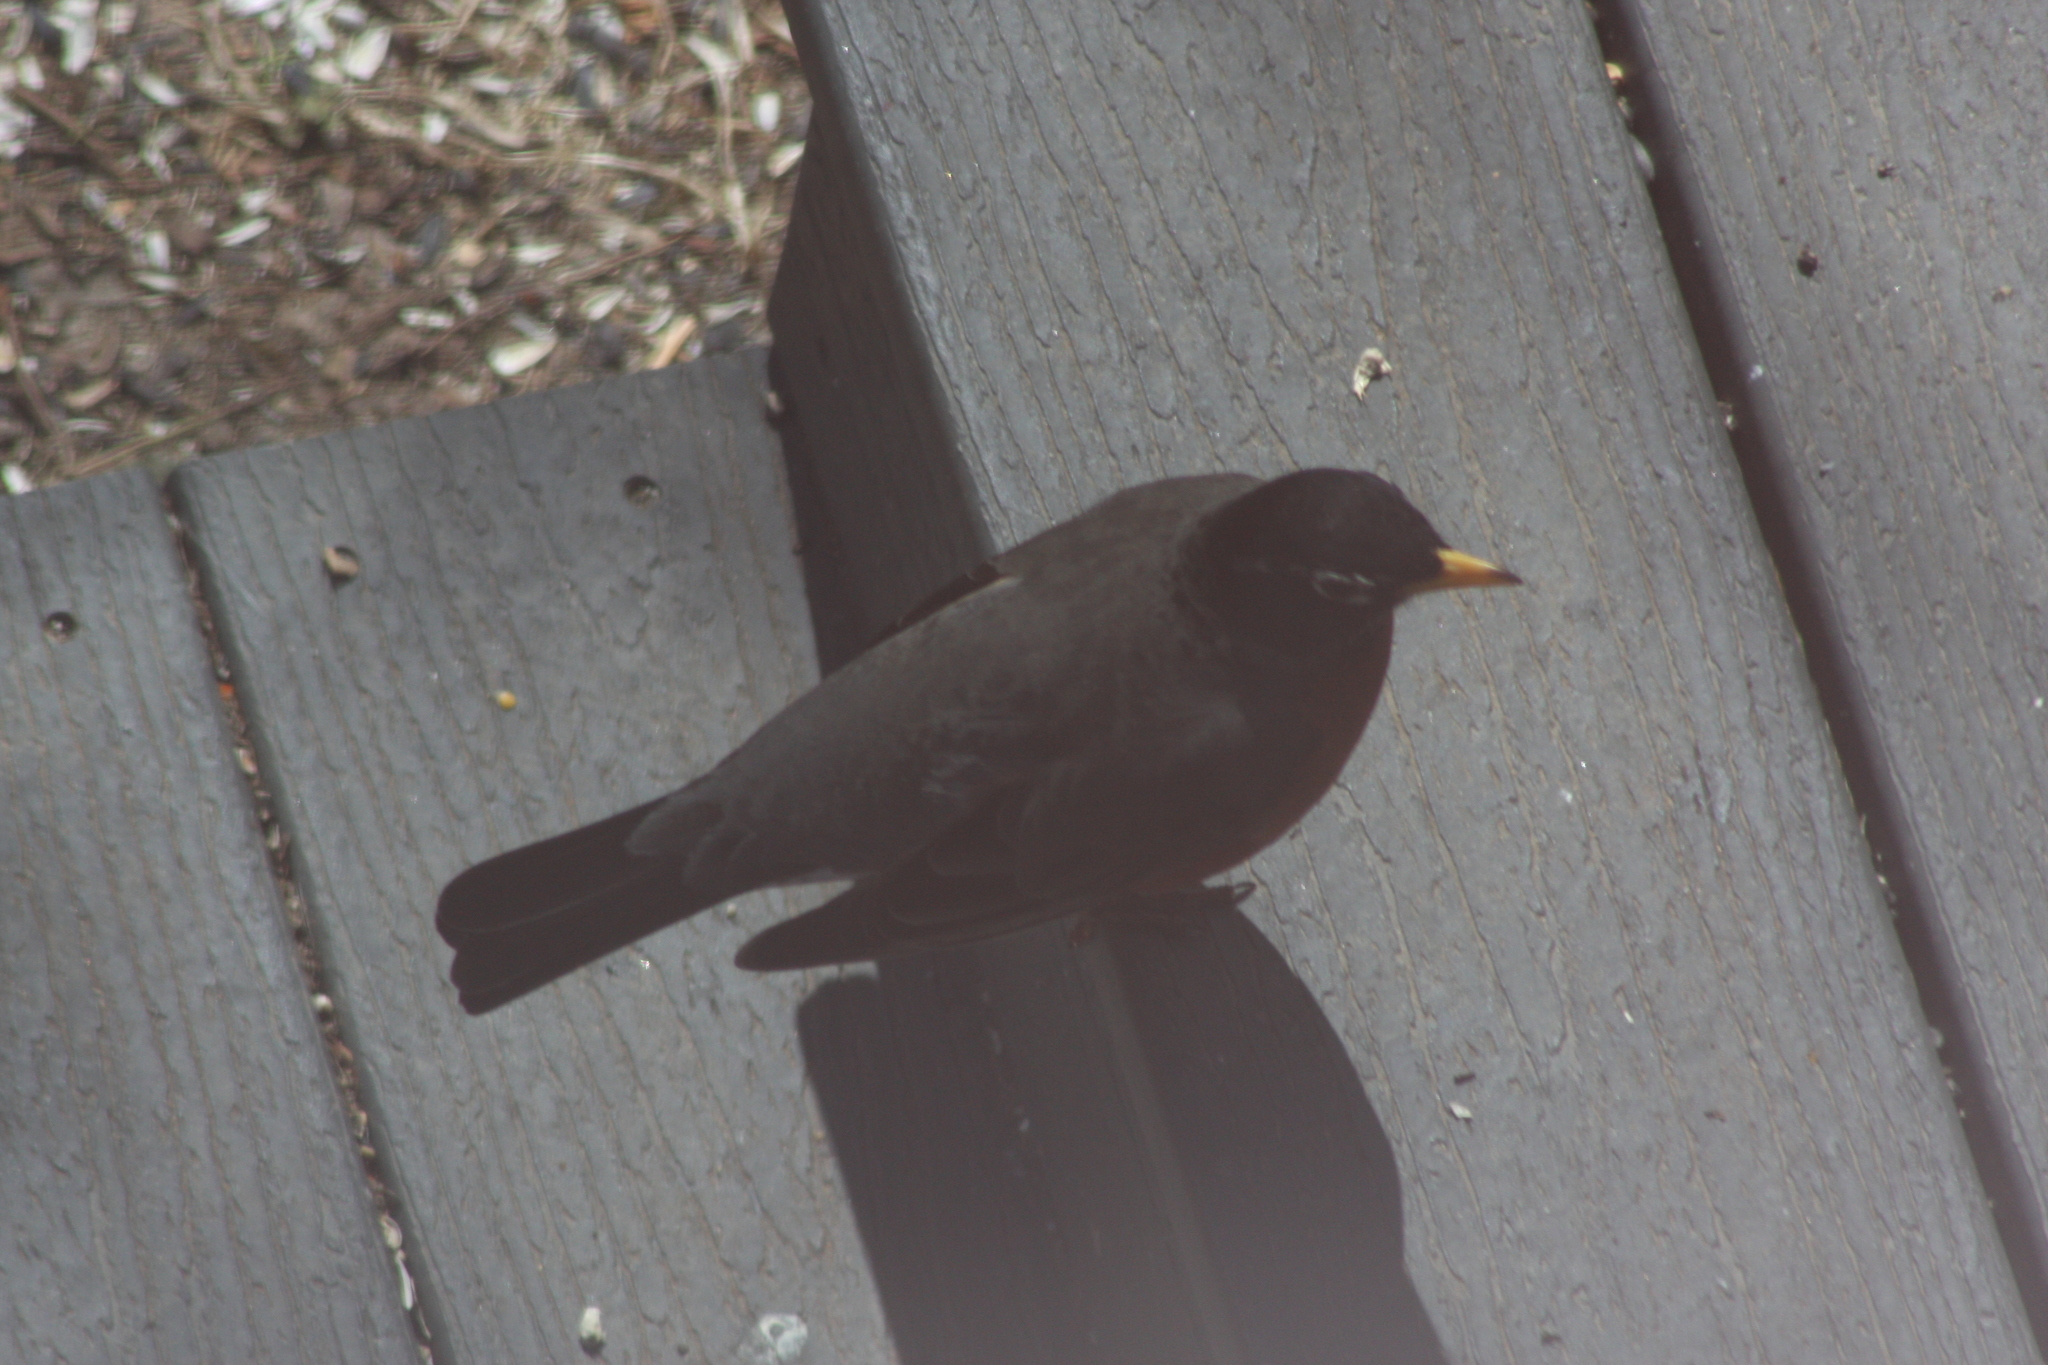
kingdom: Animalia
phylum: Chordata
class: Aves
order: Passeriformes
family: Turdidae
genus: Turdus
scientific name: Turdus migratorius
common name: American robin
